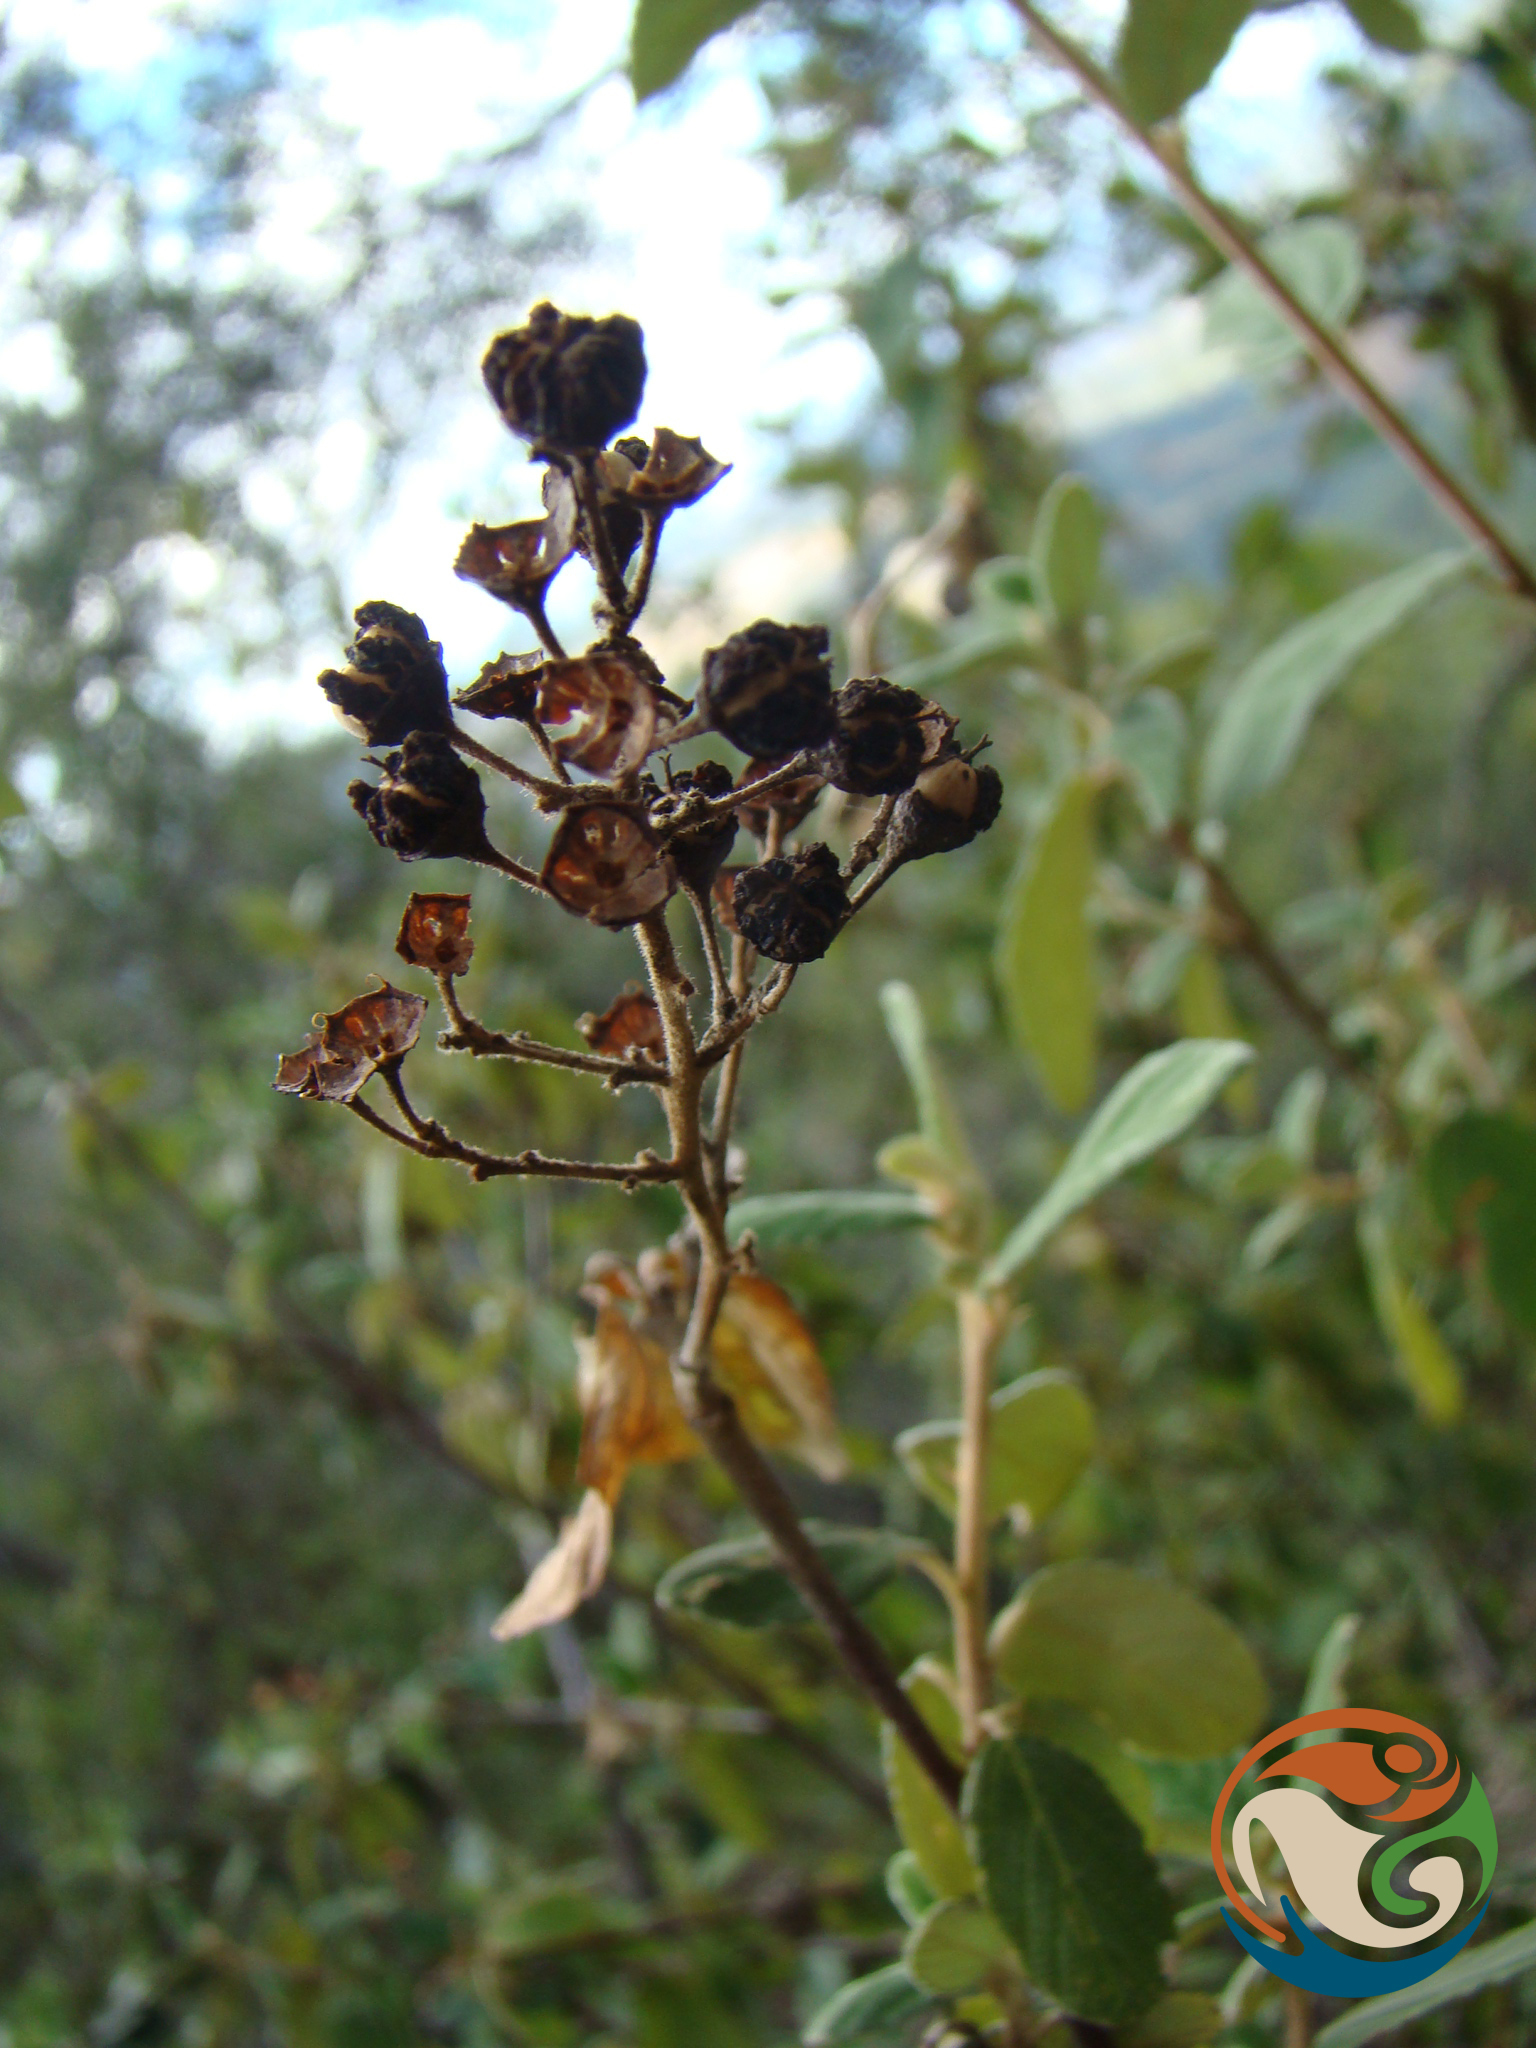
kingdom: Plantae
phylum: Tracheophyta
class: Magnoliopsida
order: Rosales
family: Rhamnaceae
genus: Ceanothus
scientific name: Ceanothus caeruleus
